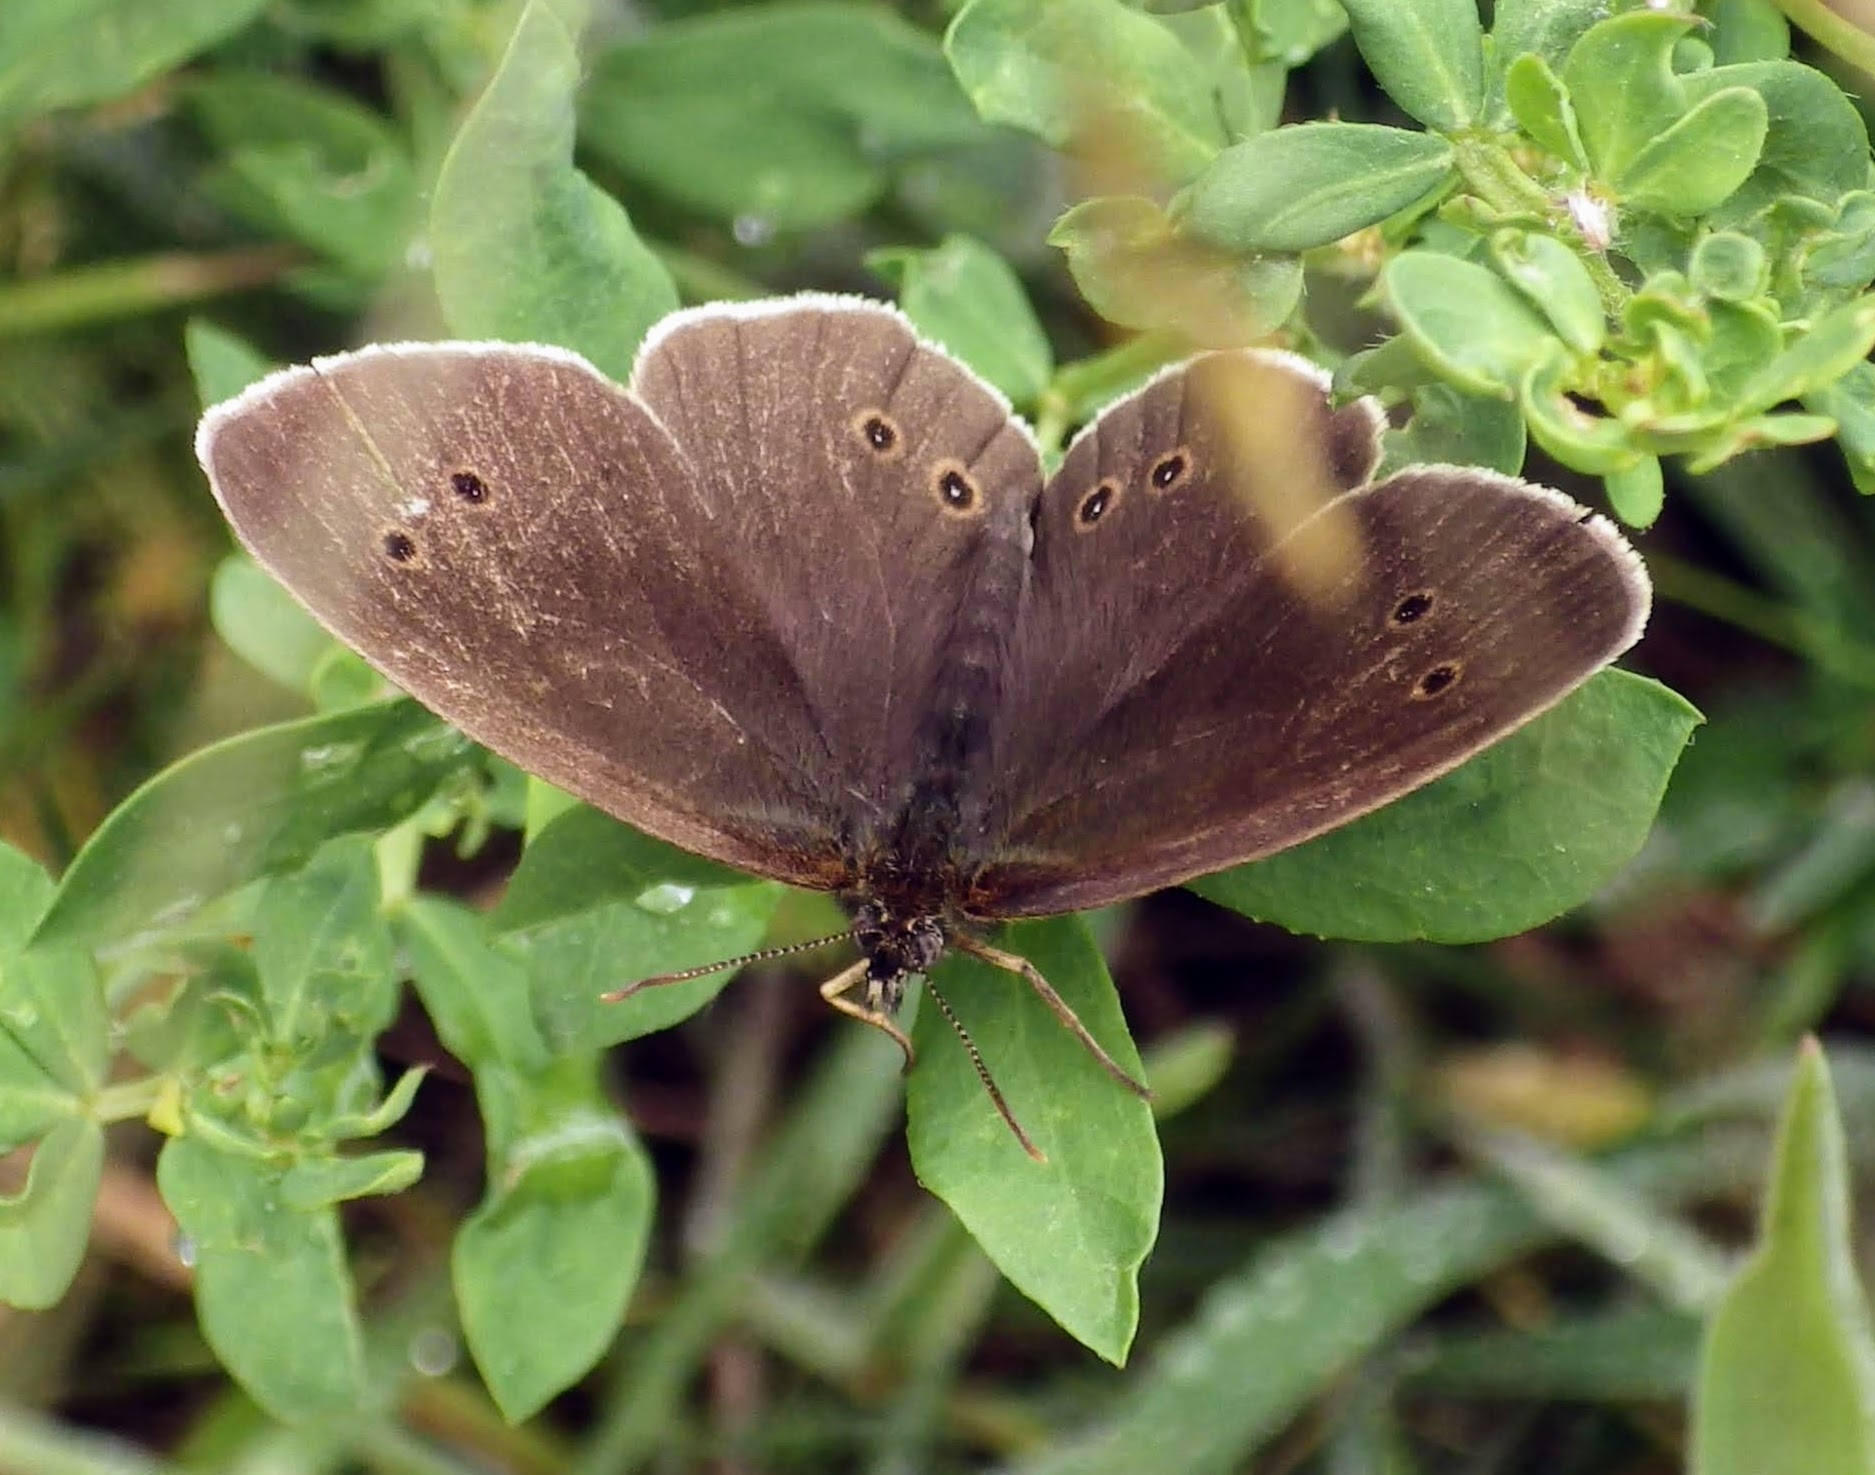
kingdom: Animalia
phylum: Arthropoda
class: Insecta
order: Lepidoptera
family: Nymphalidae
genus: Aphantopus
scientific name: Aphantopus hyperantus
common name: Ringlet
